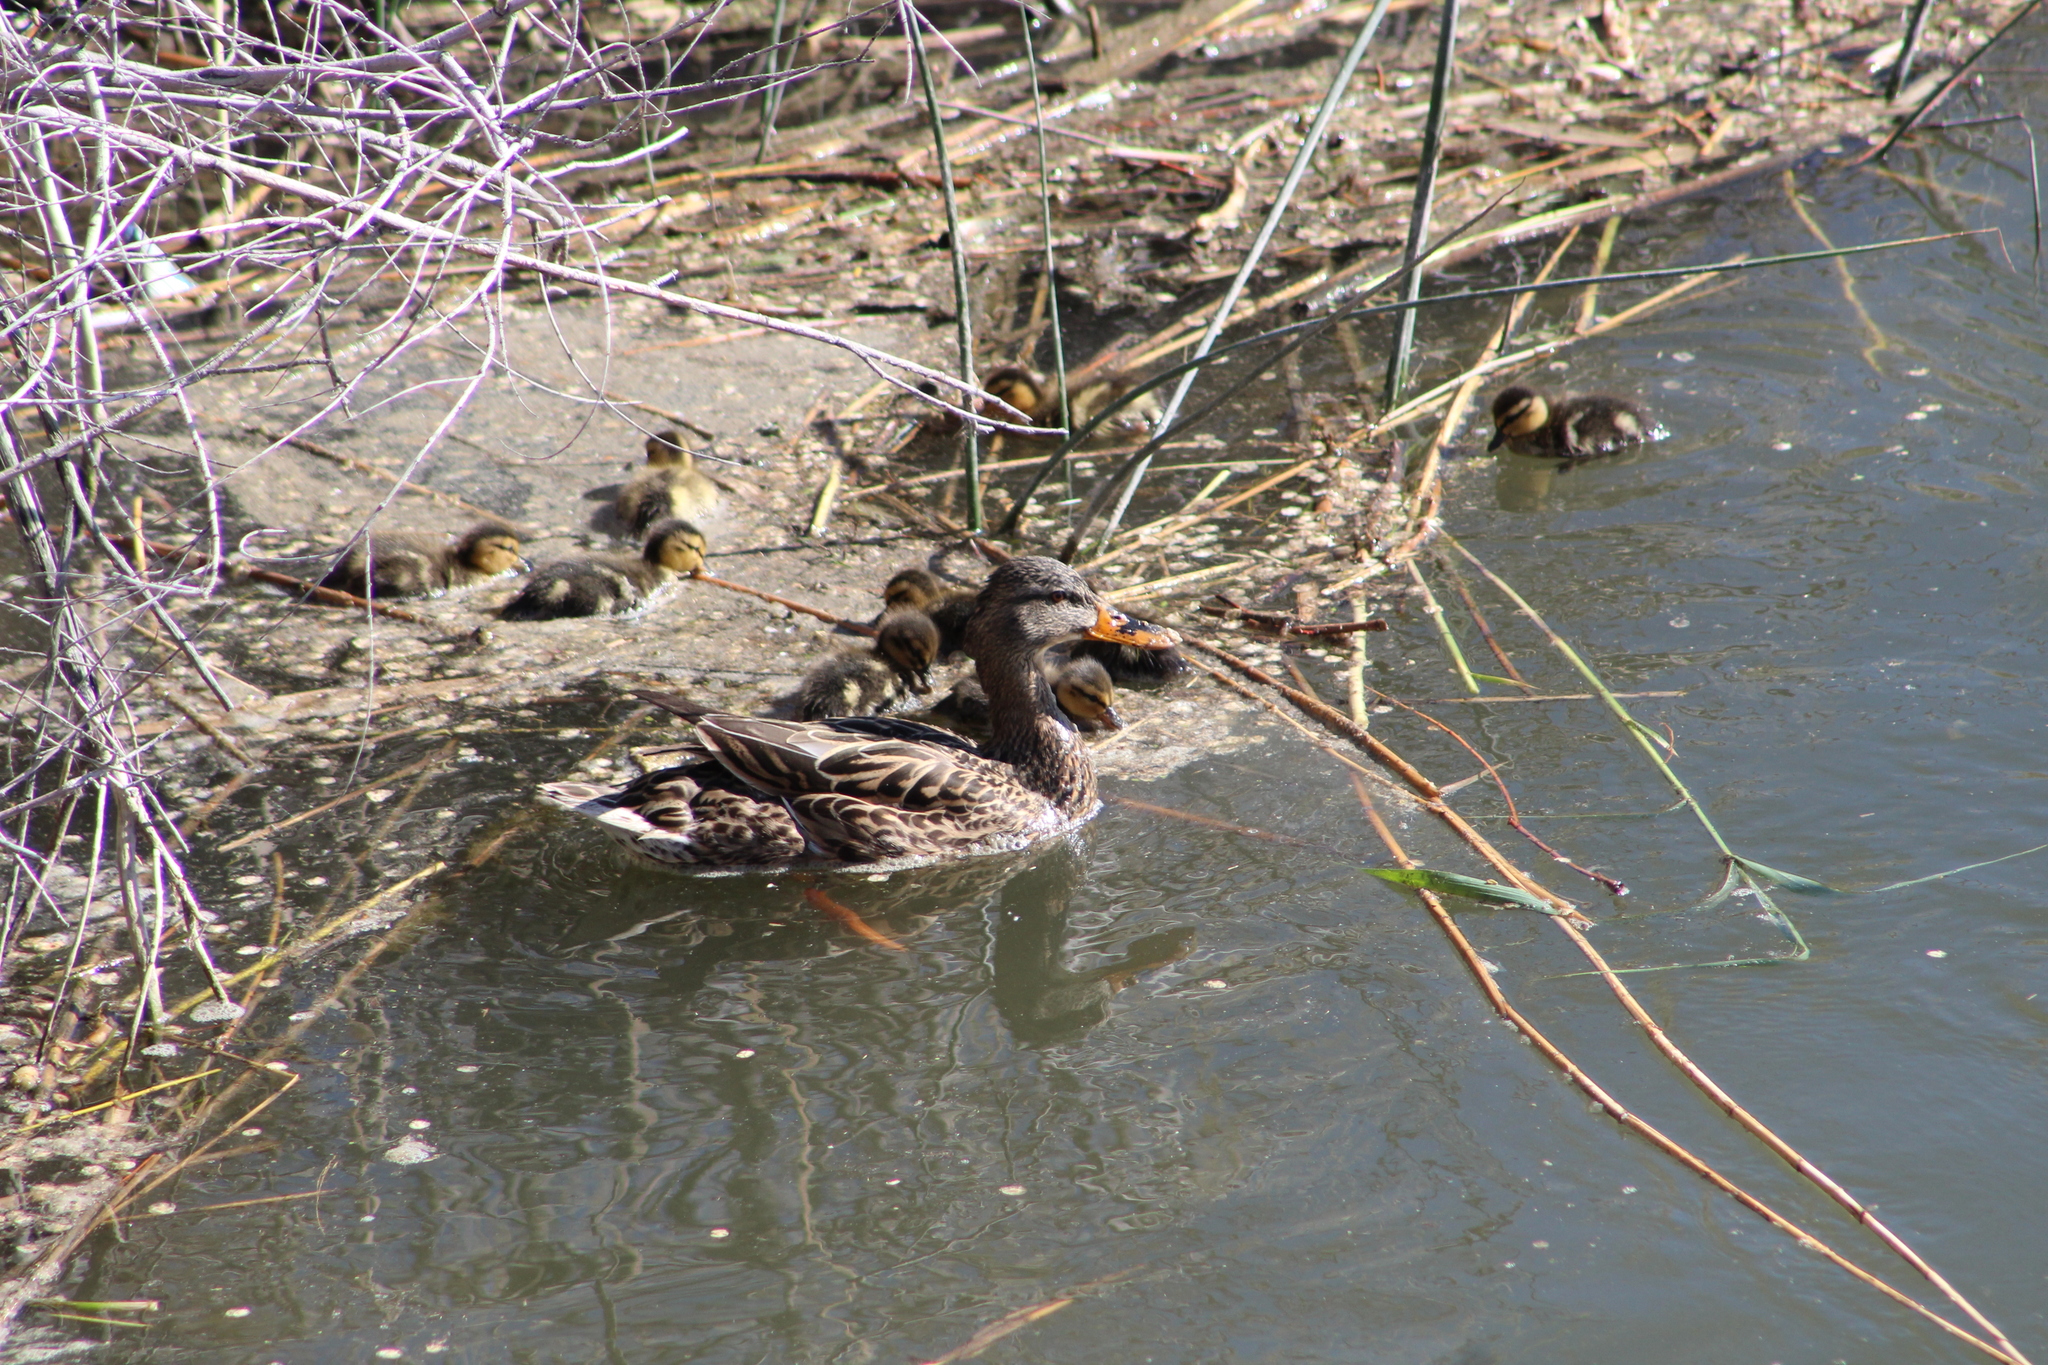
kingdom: Animalia
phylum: Chordata
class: Aves
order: Anseriformes
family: Anatidae
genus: Anas
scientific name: Anas platyrhynchos
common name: Mallard
